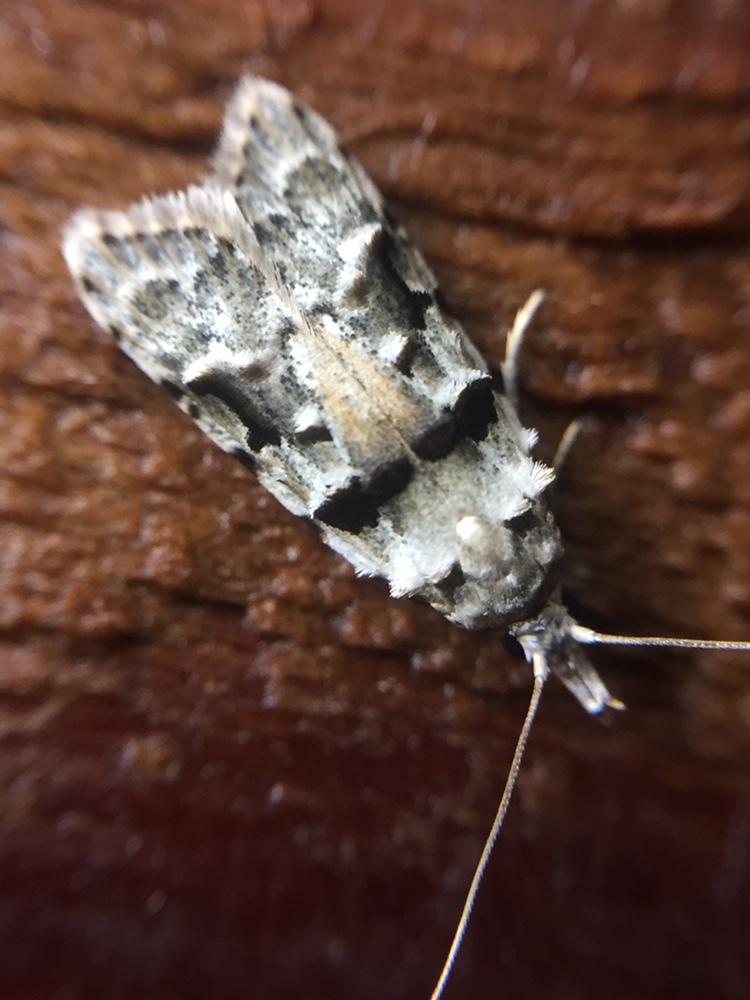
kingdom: Animalia
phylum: Arthropoda
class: Insecta
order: Lepidoptera
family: Carposinidae
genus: Coscinoptycha
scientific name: Coscinoptycha improbana
